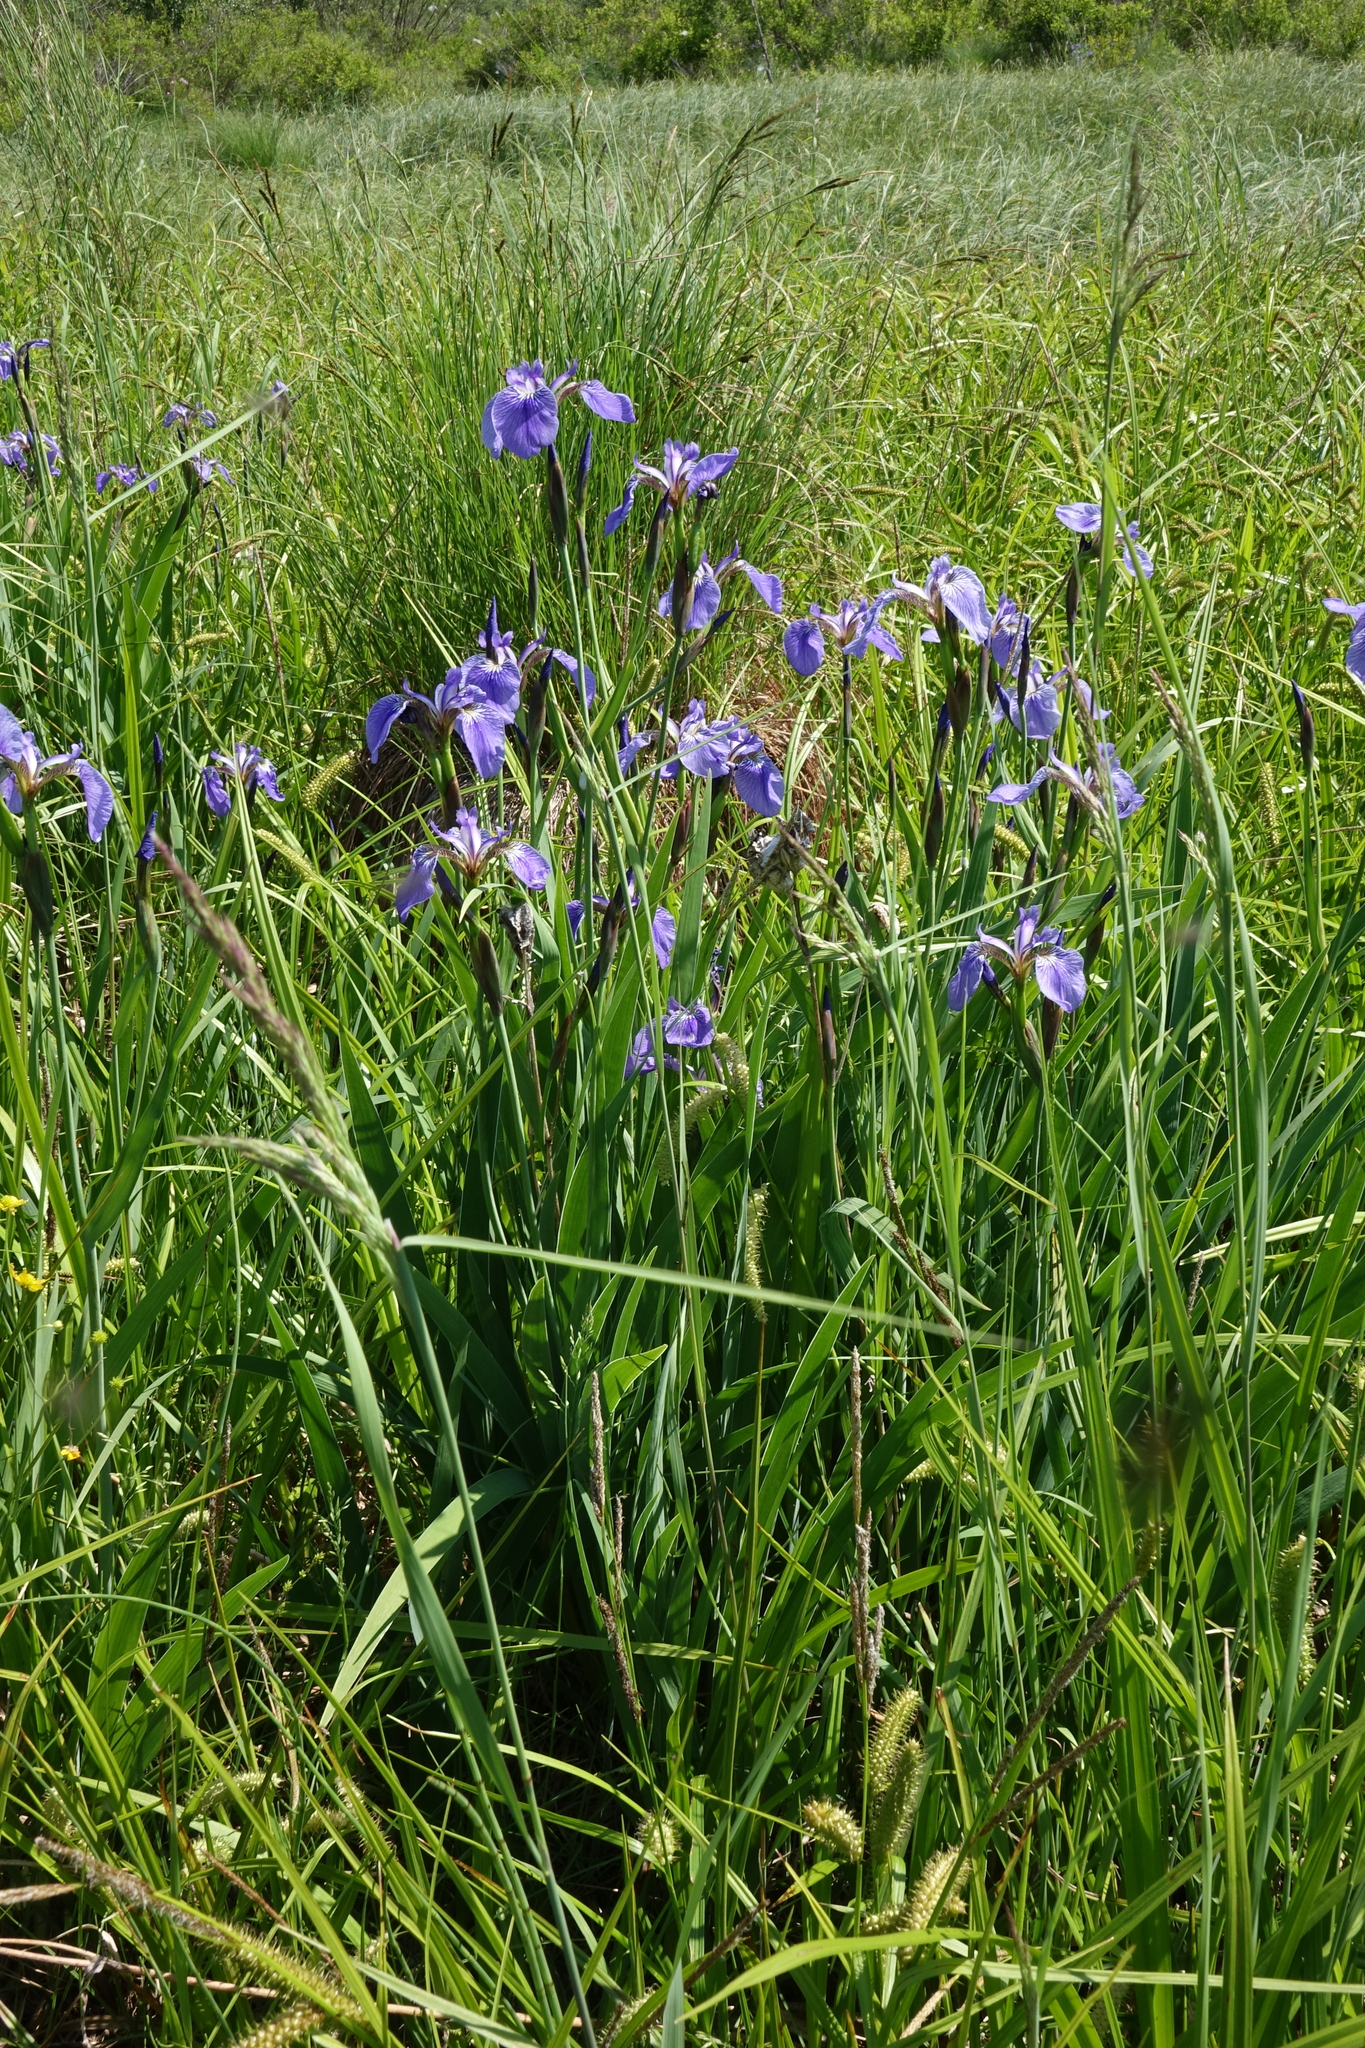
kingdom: Plantae
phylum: Tracheophyta
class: Liliopsida
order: Asparagales
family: Iridaceae
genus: Iris
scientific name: Iris setosa
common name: Arctic blue flag
